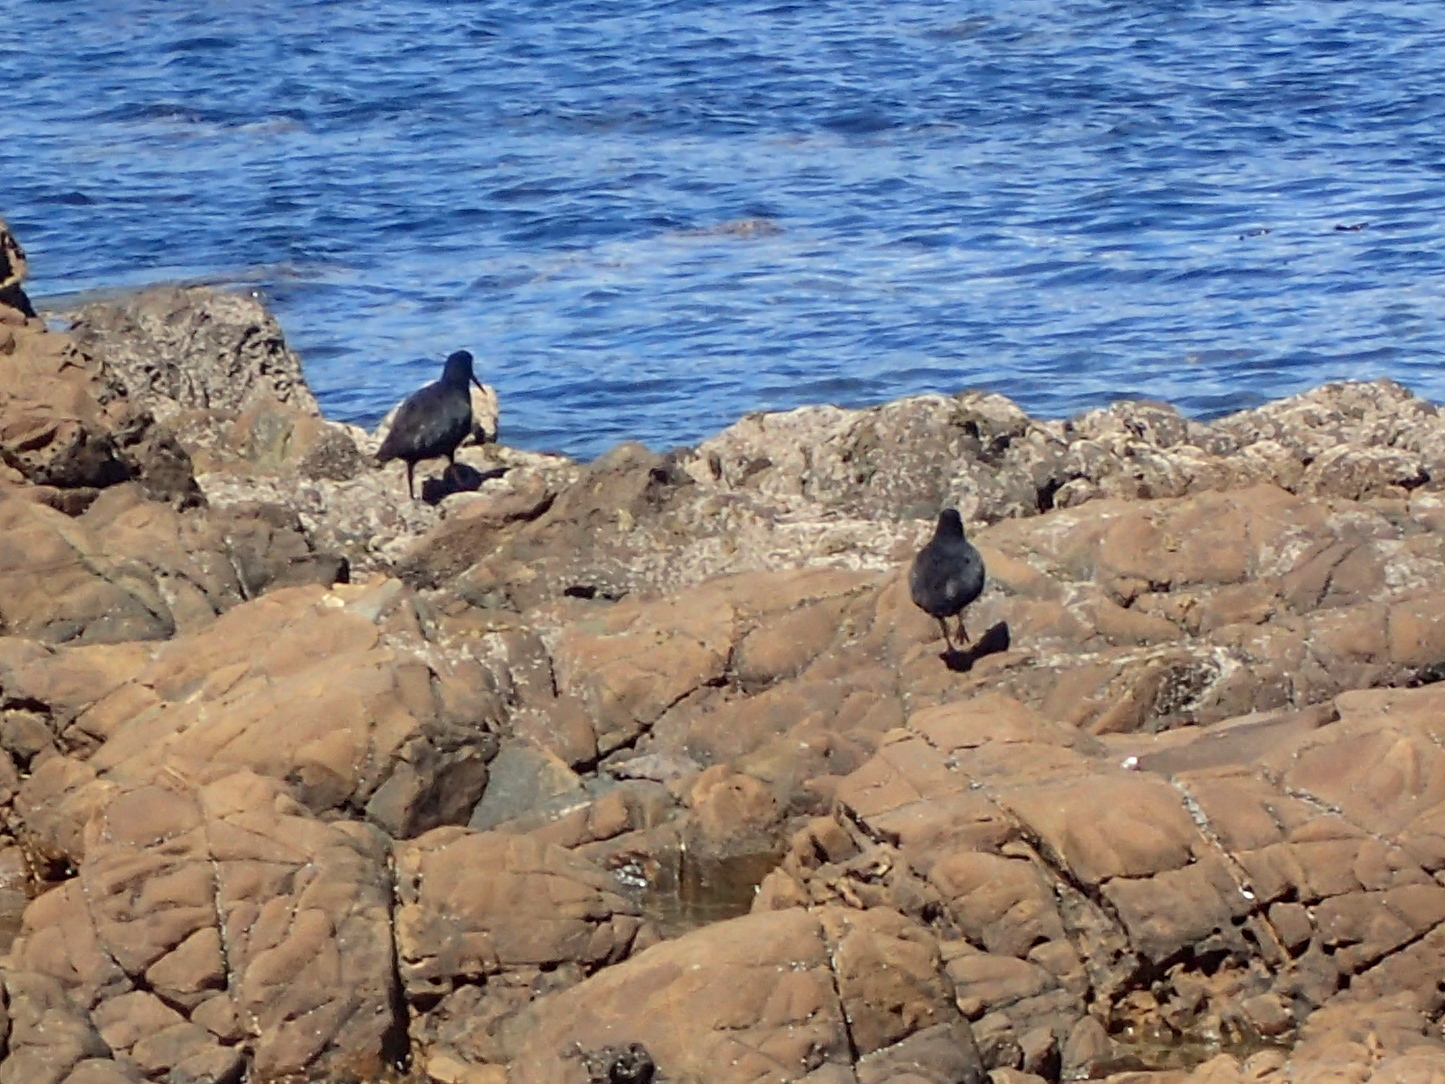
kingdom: Animalia
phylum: Chordata
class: Aves
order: Charadriiformes
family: Haematopodidae
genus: Haematopus
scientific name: Haematopus unicolor
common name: Variable oystercatcher
